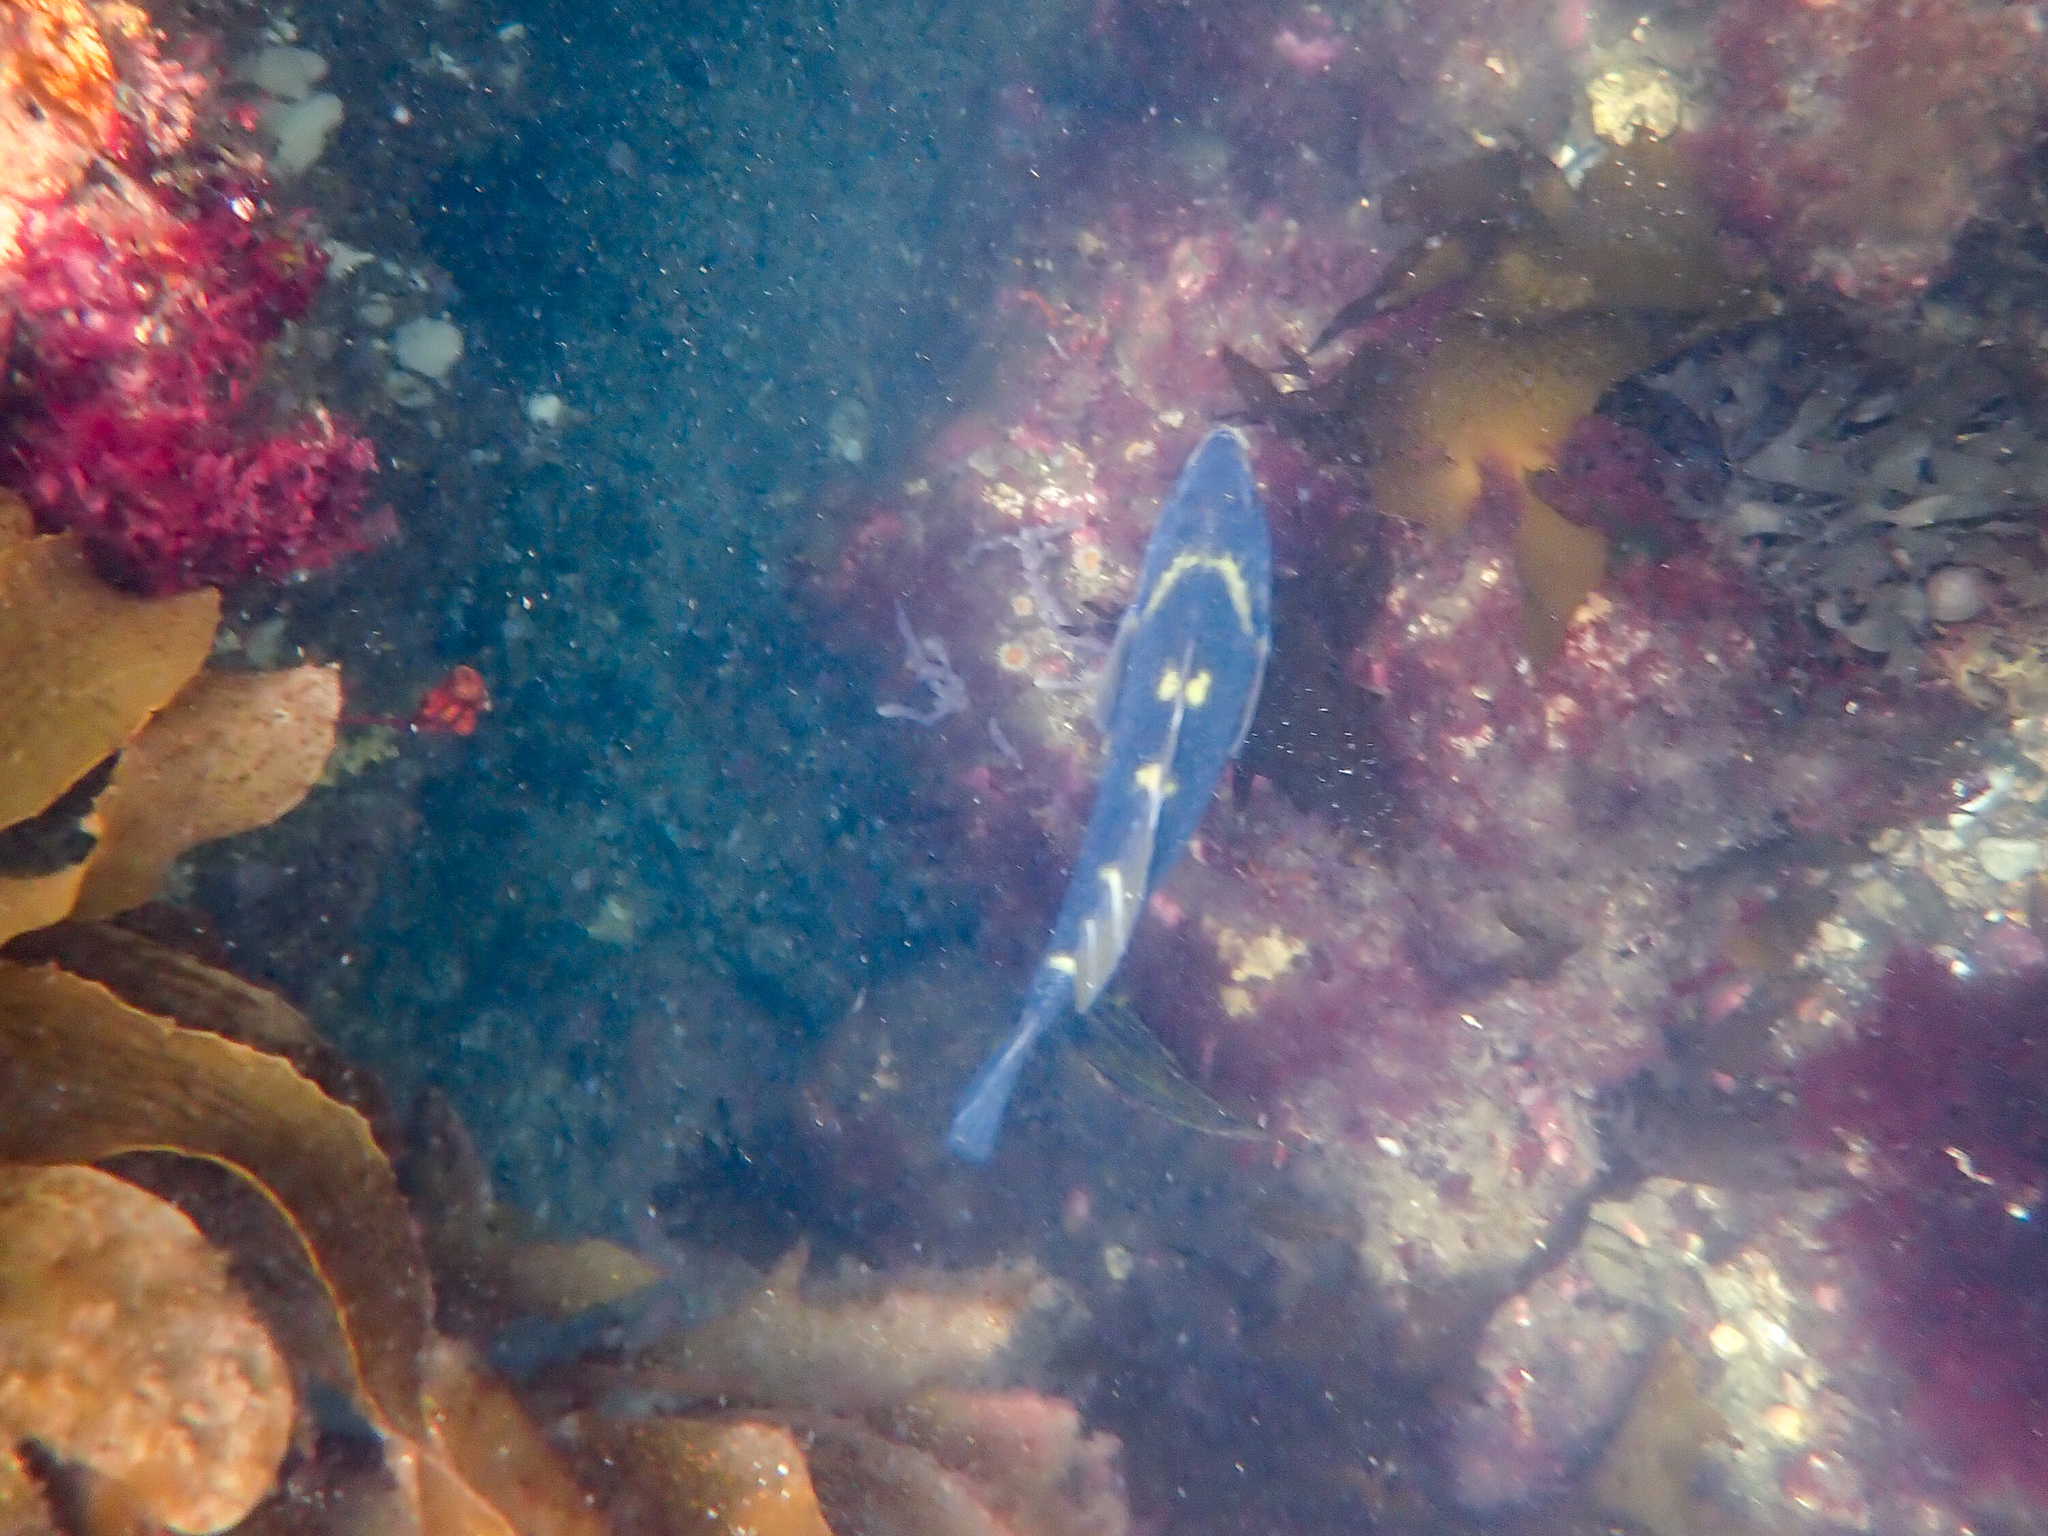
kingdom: Animalia
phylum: Chordata
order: Perciformes
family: Labridae
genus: Notolabrus
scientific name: Notolabrus fucicola
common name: Banded parrotfish
